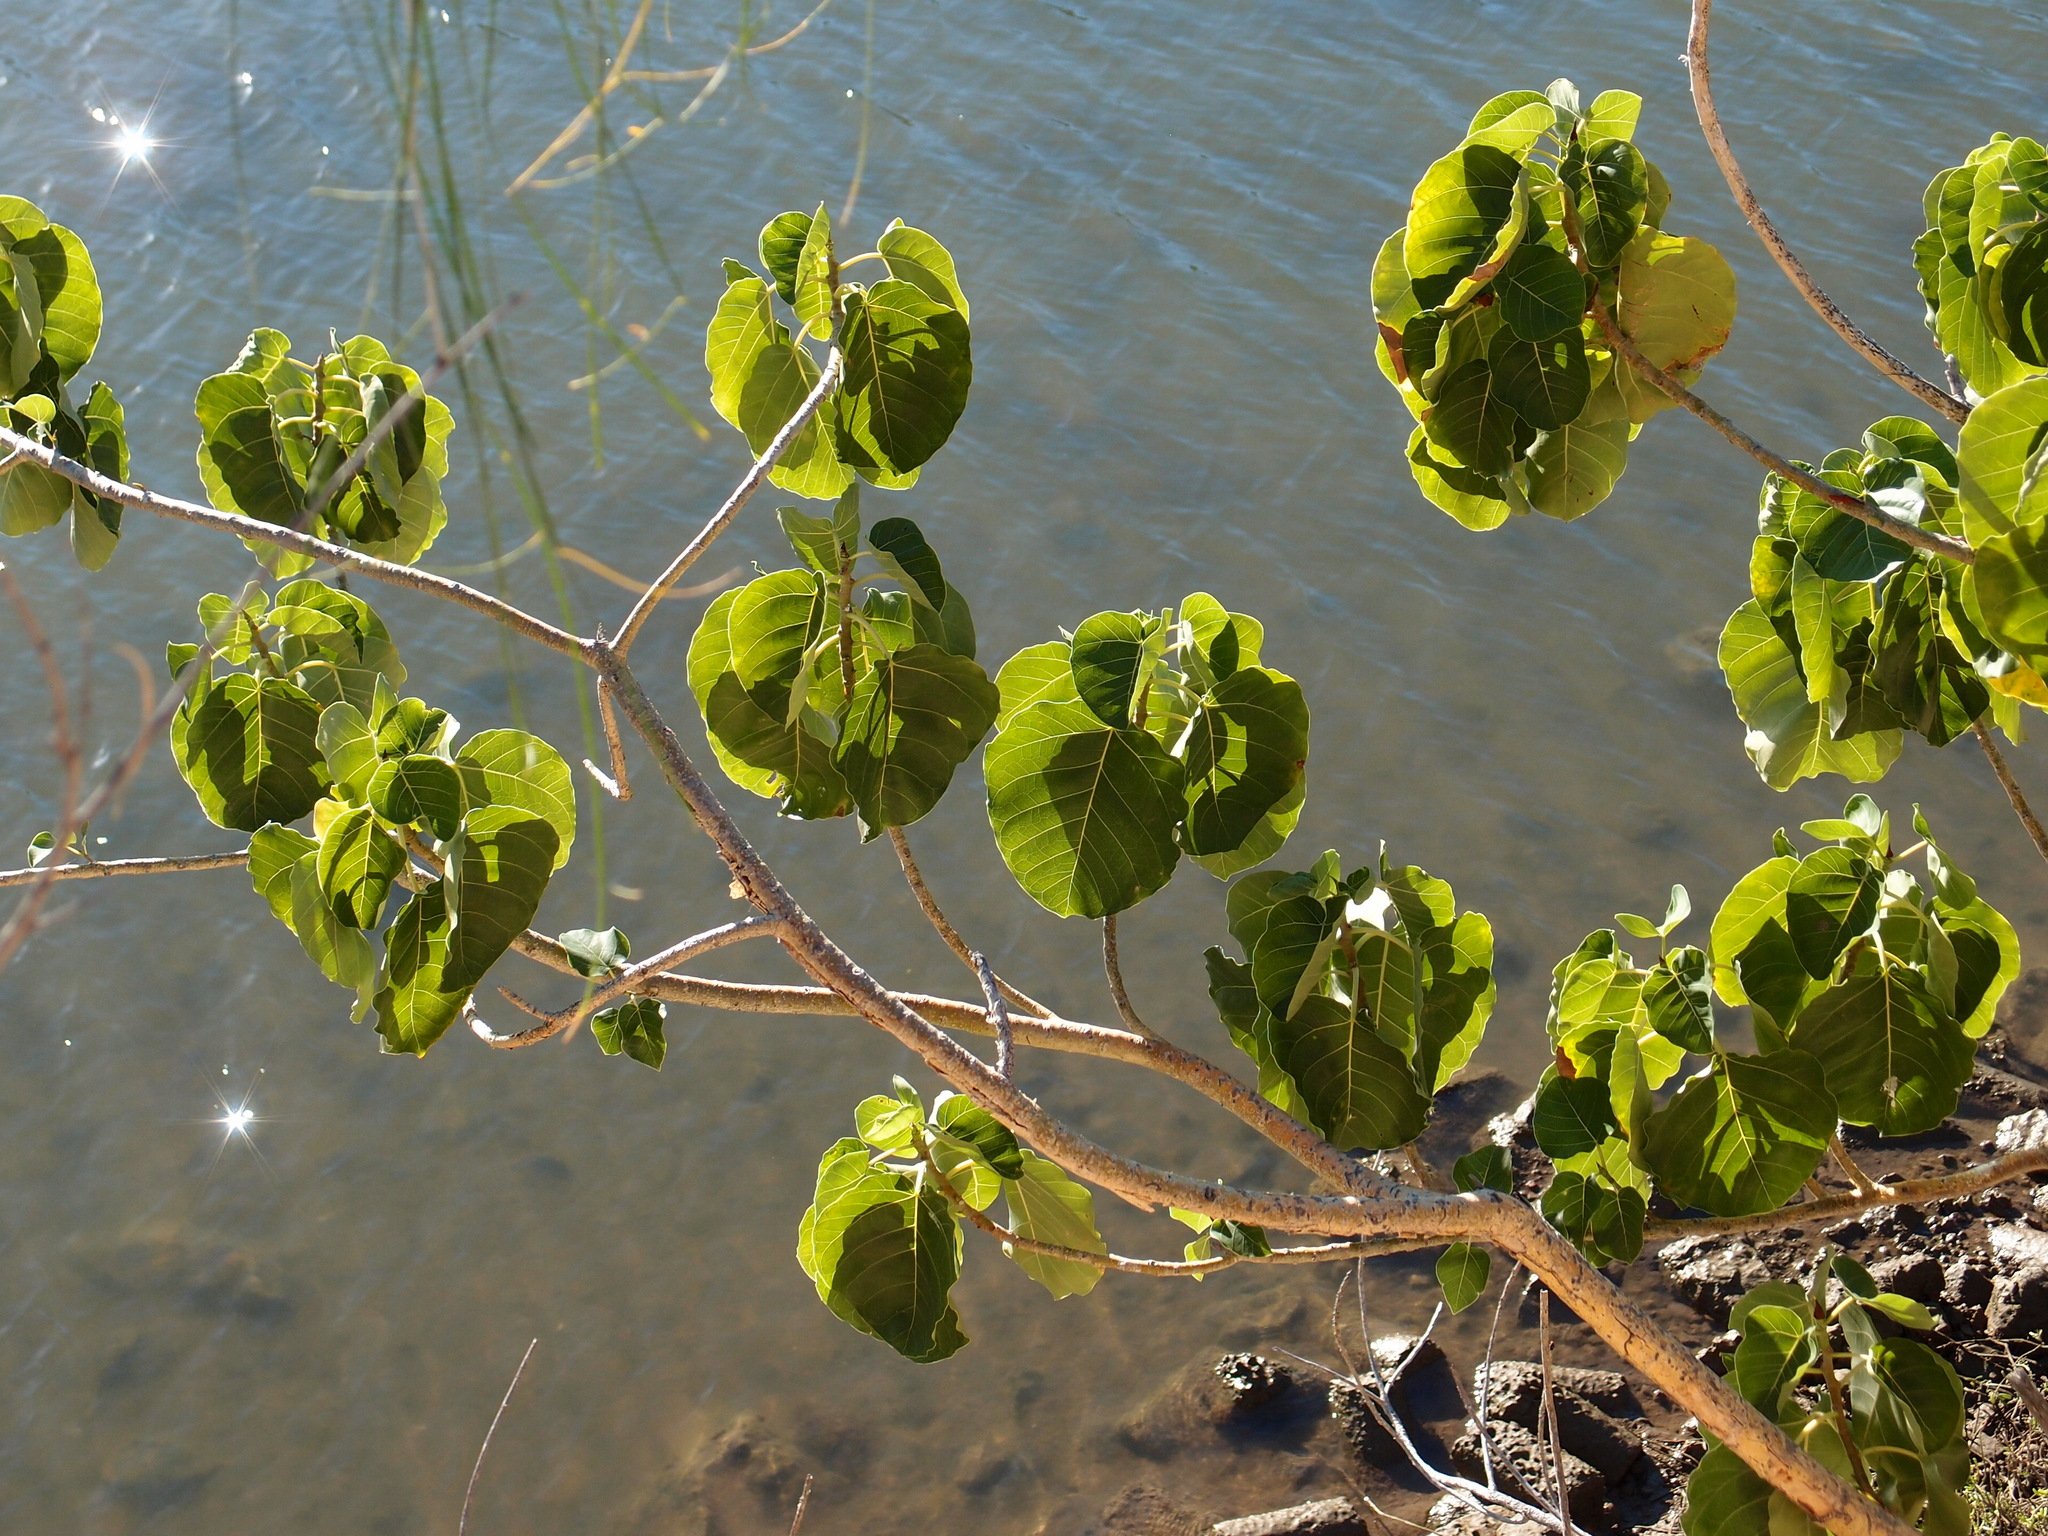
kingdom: Plantae
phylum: Tracheophyta
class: Magnoliopsida
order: Rosales
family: Moraceae
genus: Ficus
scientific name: Ficus petiolaris
